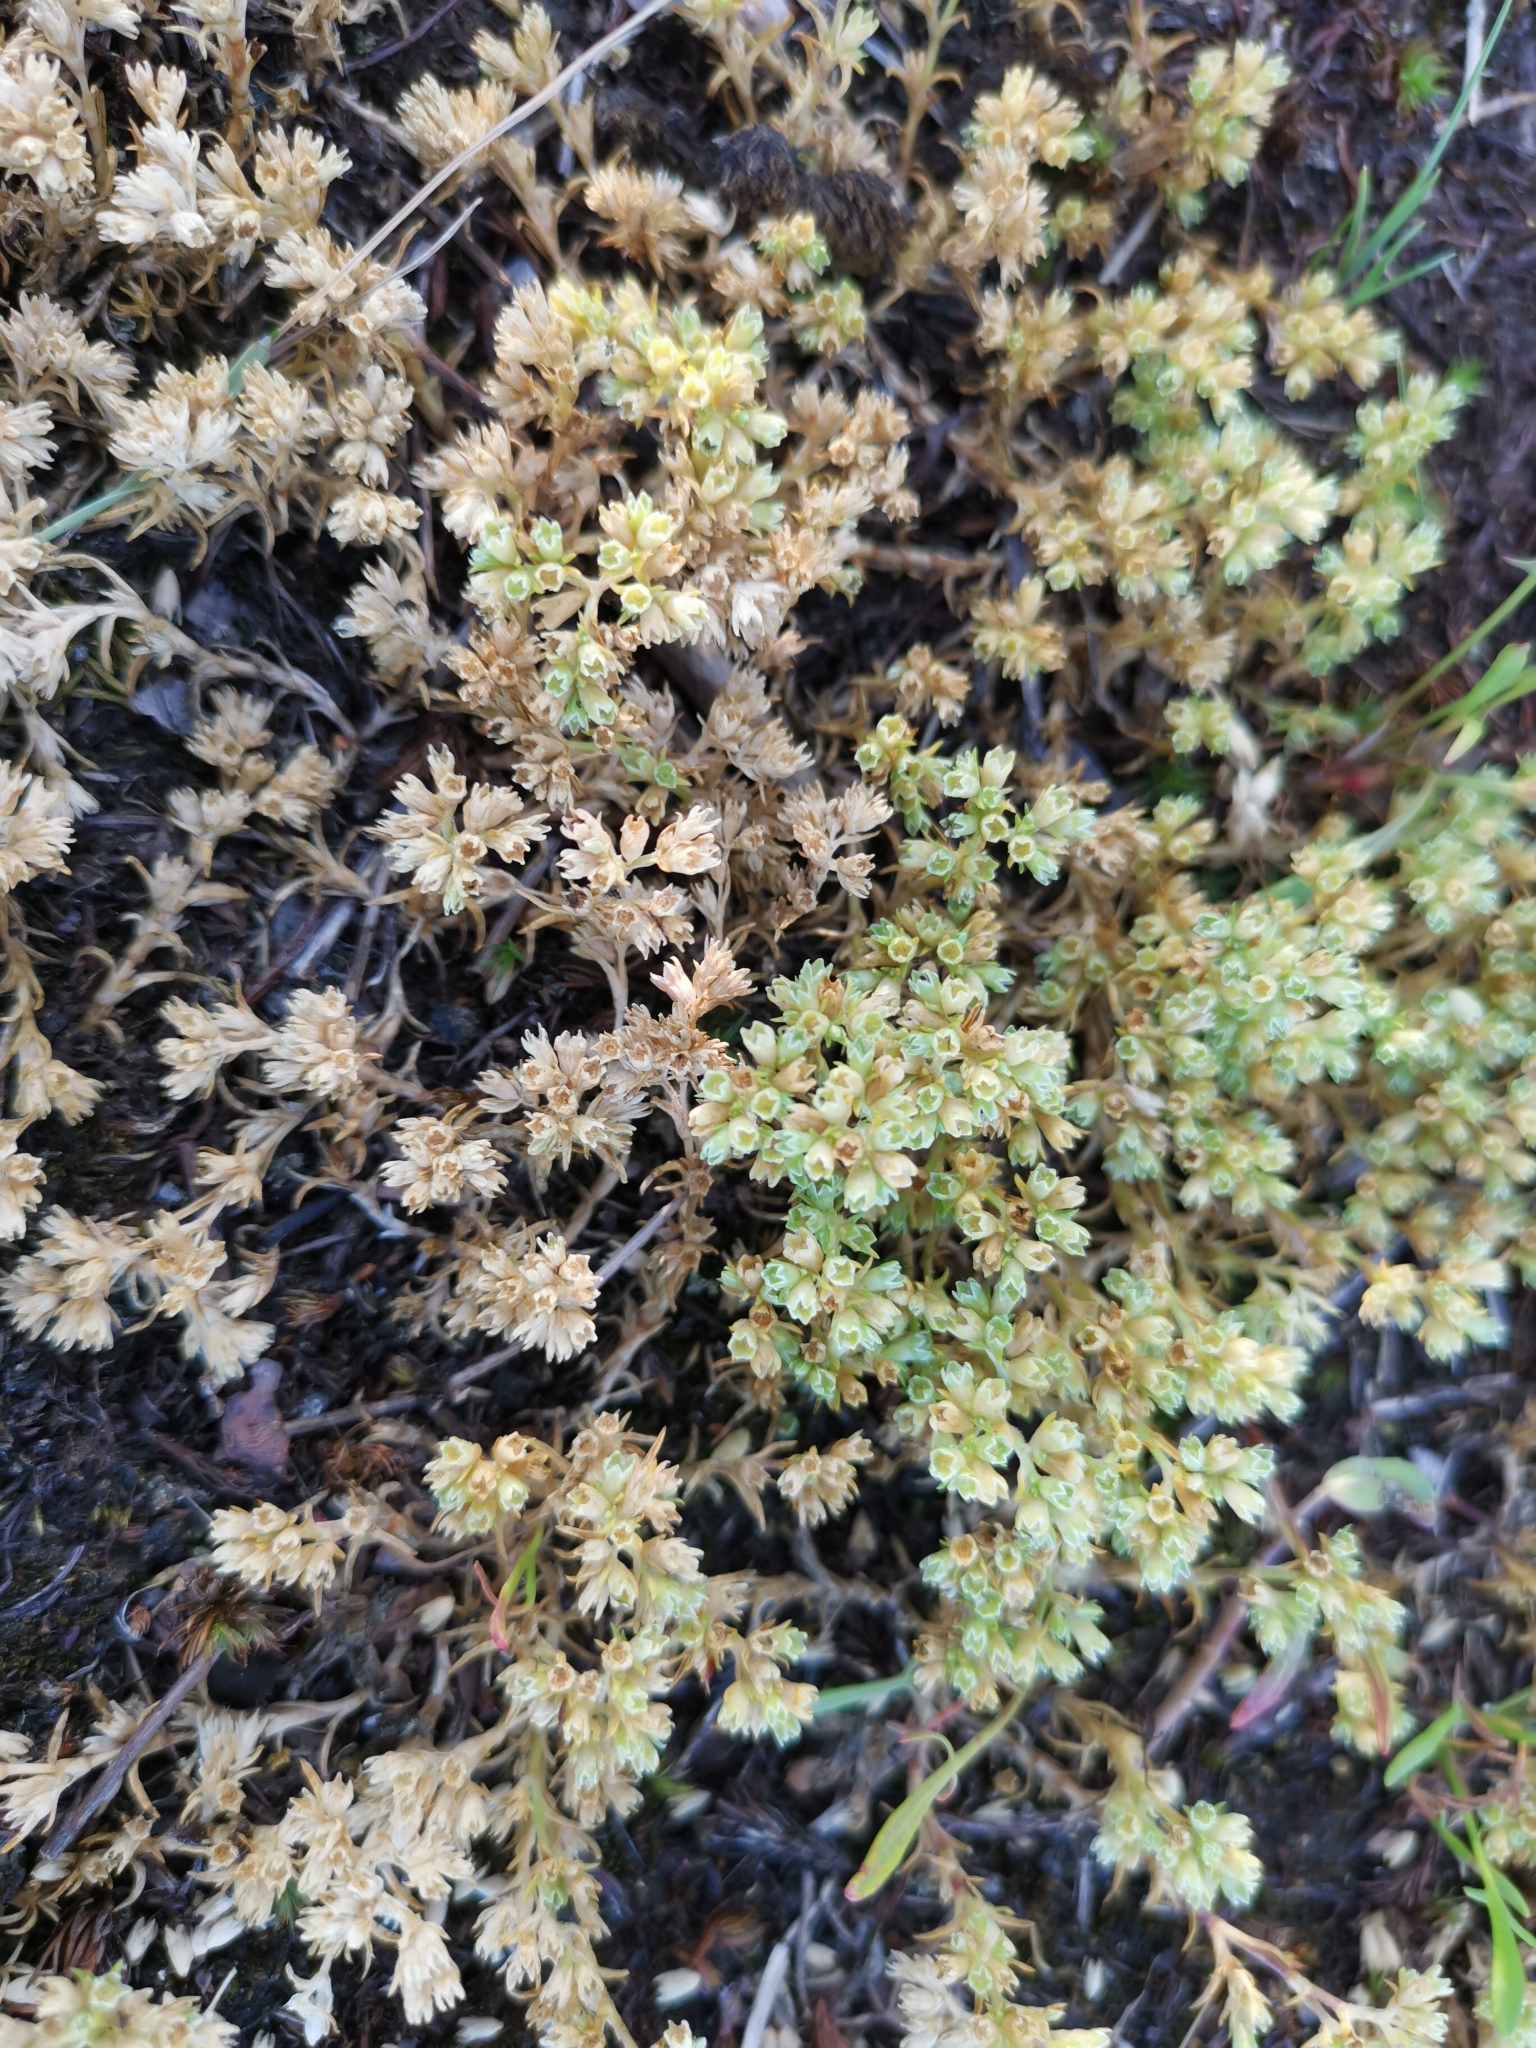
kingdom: Plantae
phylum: Tracheophyta
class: Magnoliopsida
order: Caryophyllales
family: Caryophyllaceae
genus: Scleranthus
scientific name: Scleranthus annuus
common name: Annual knawel
